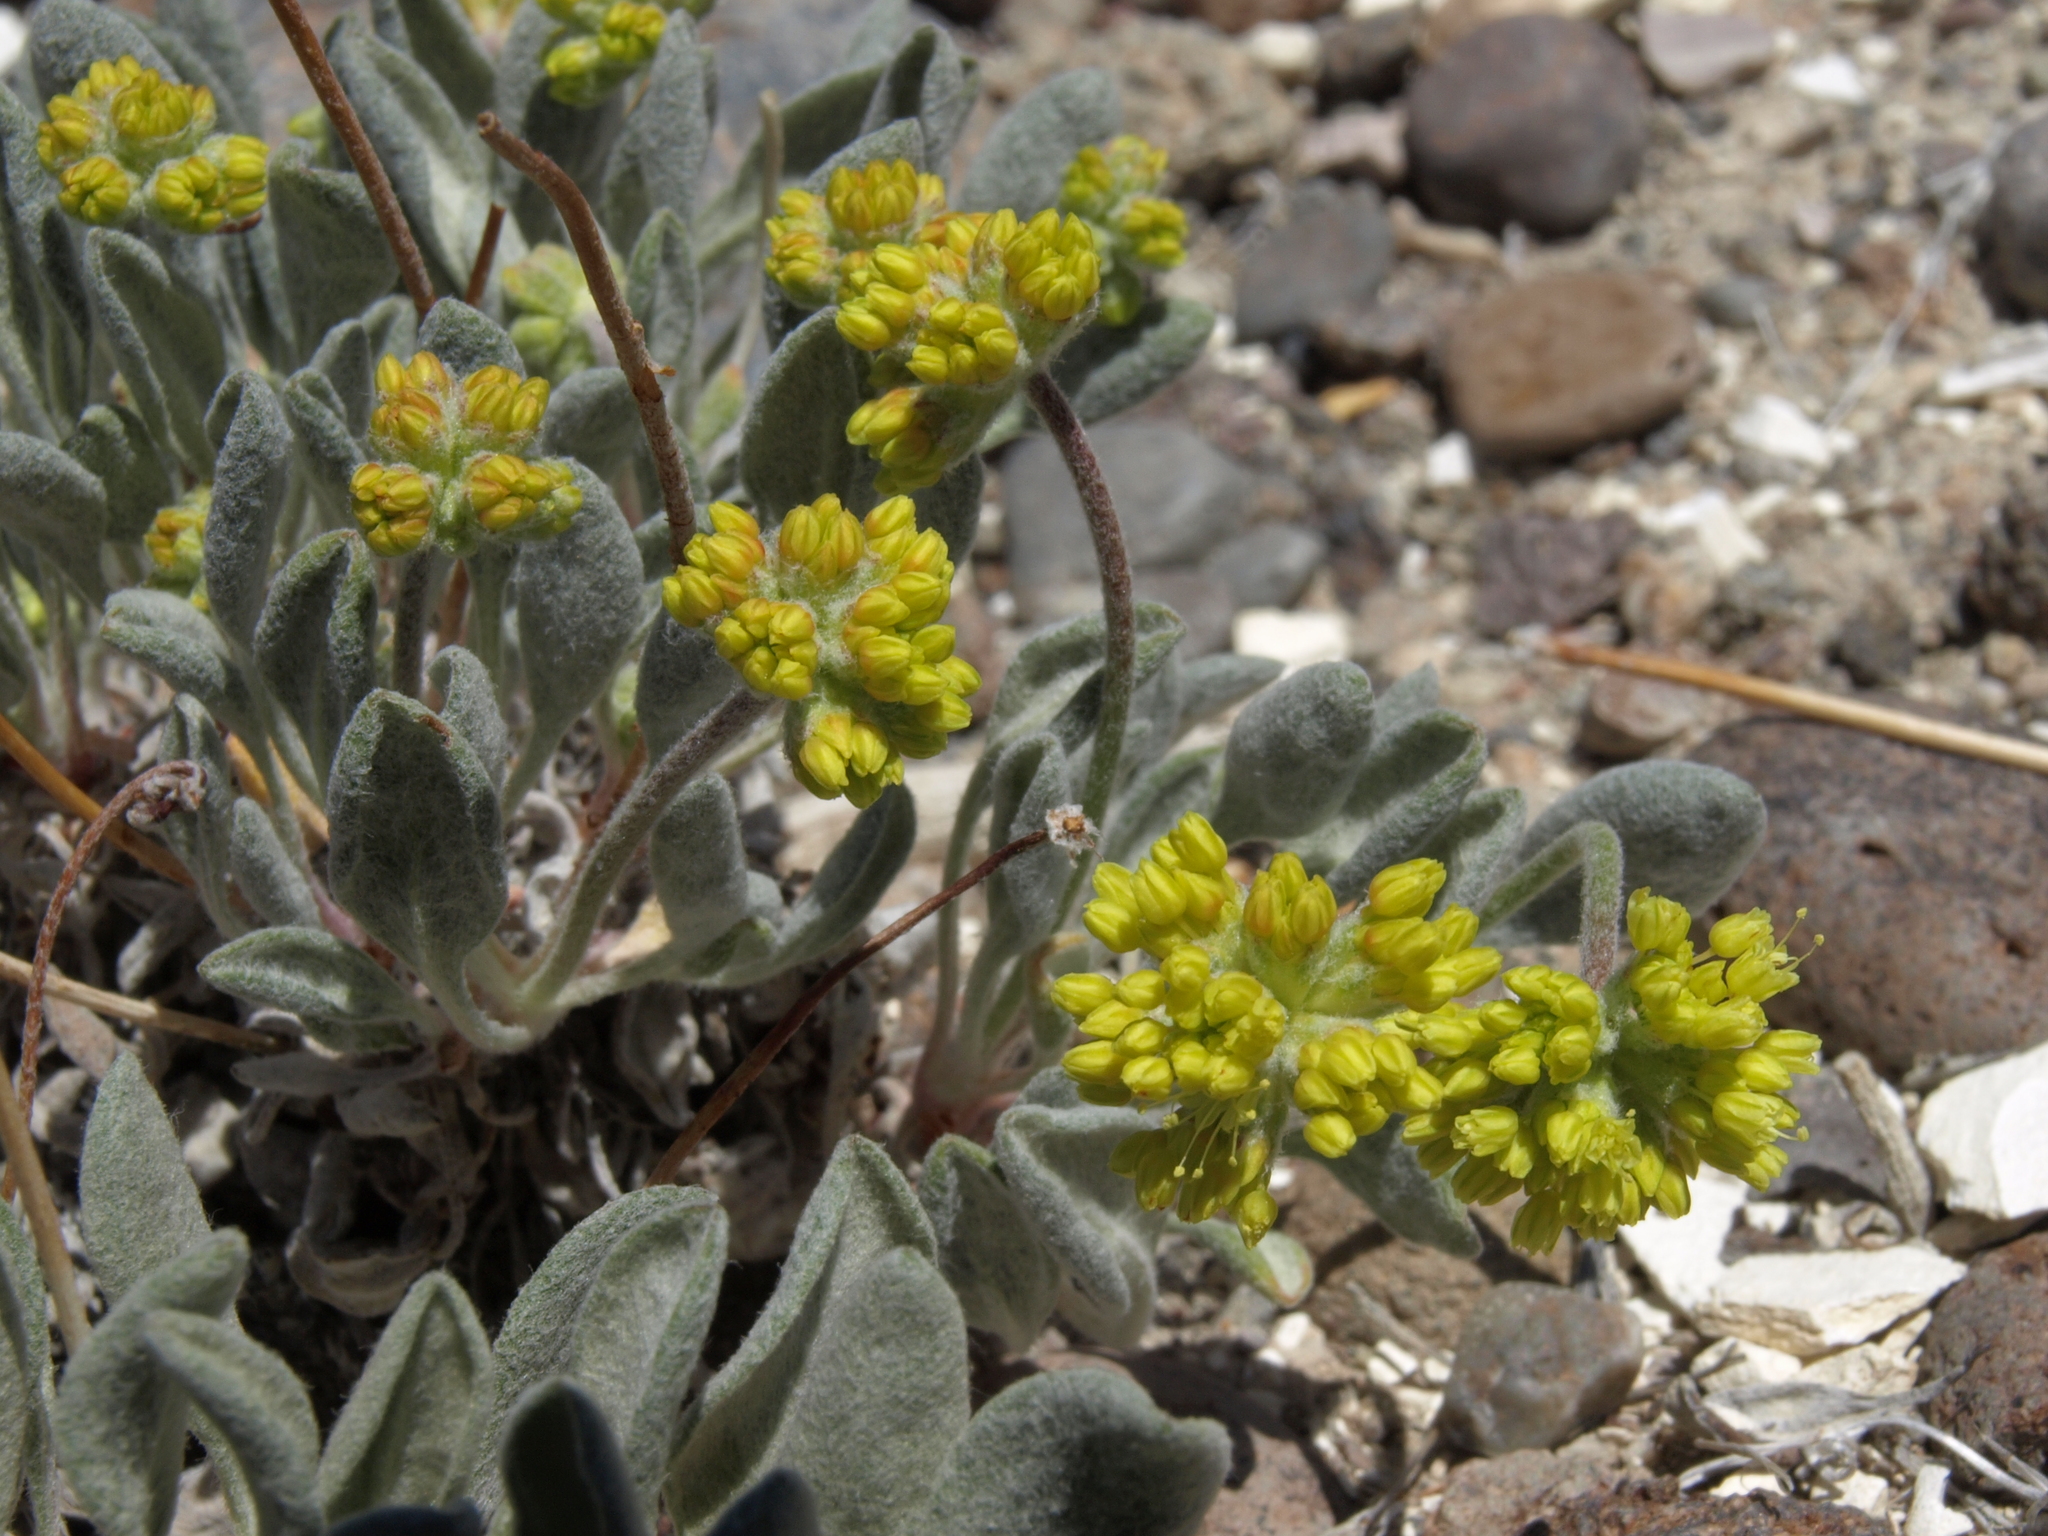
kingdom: Plantae
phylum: Tracheophyta
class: Magnoliopsida
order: Caryophyllales
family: Polygonaceae
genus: Eriogonum
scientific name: Eriogonum alexanderae
